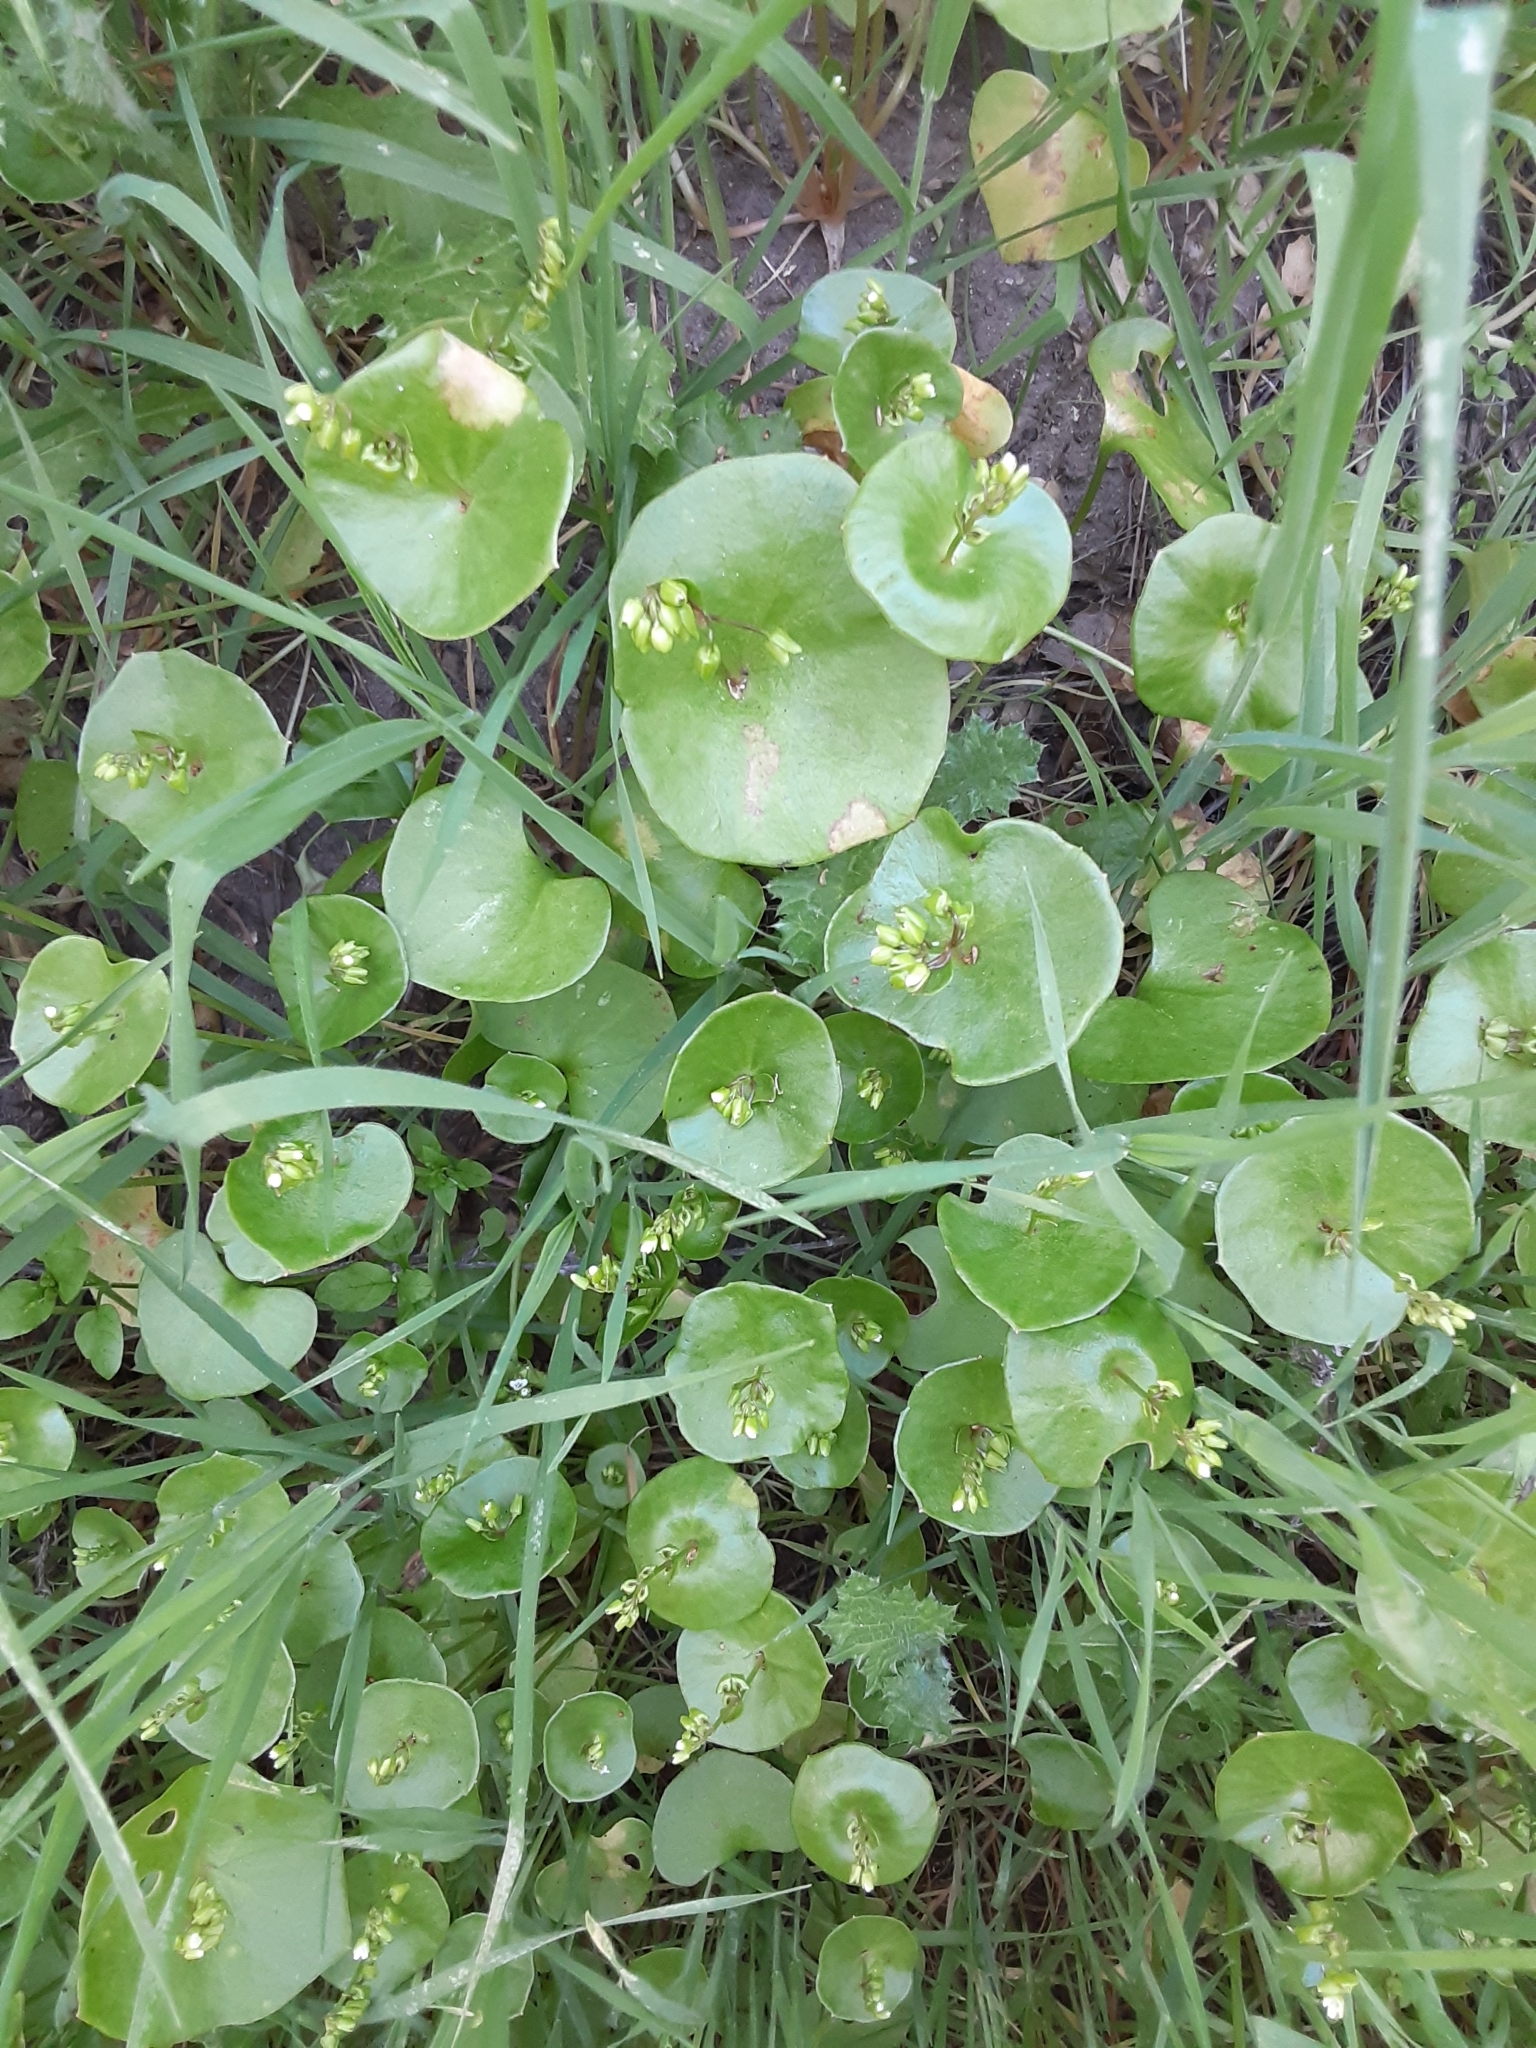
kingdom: Plantae
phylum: Tracheophyta
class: Magnoliopsida
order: Caryophyllales
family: Montiaceae
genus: Claytonia
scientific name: Claytonia perfoliata
